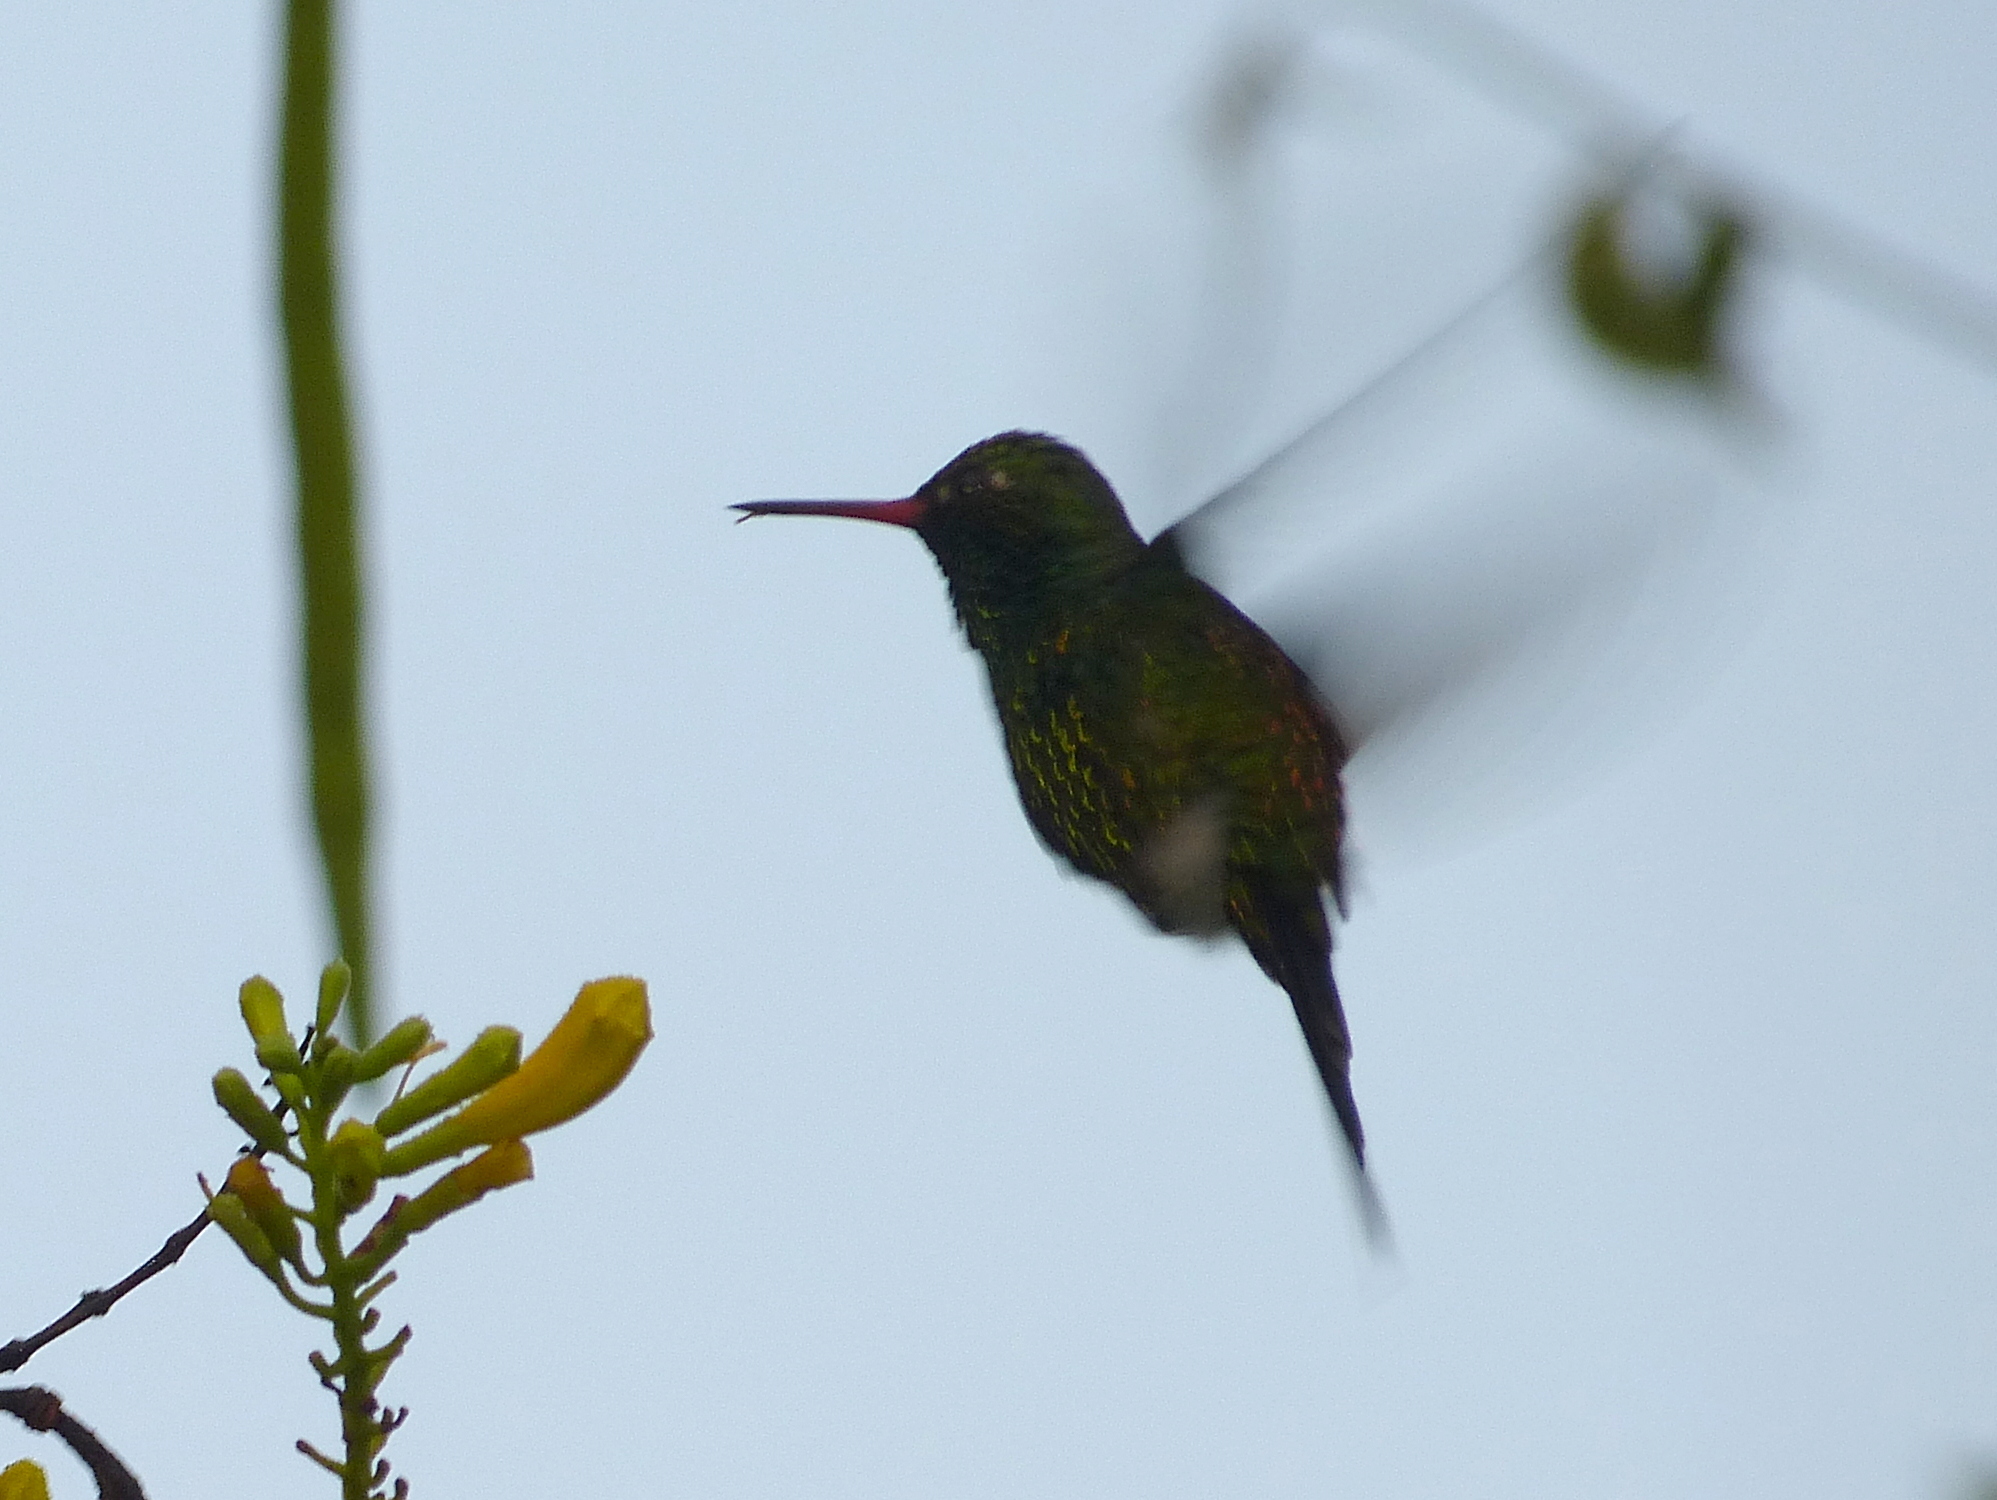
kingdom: Animalia
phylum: Chordata
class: Aves
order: Apodiformes
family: Trochilidae
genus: Cynanthus
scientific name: Cynanthus canivetii
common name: Canivet's emerald
